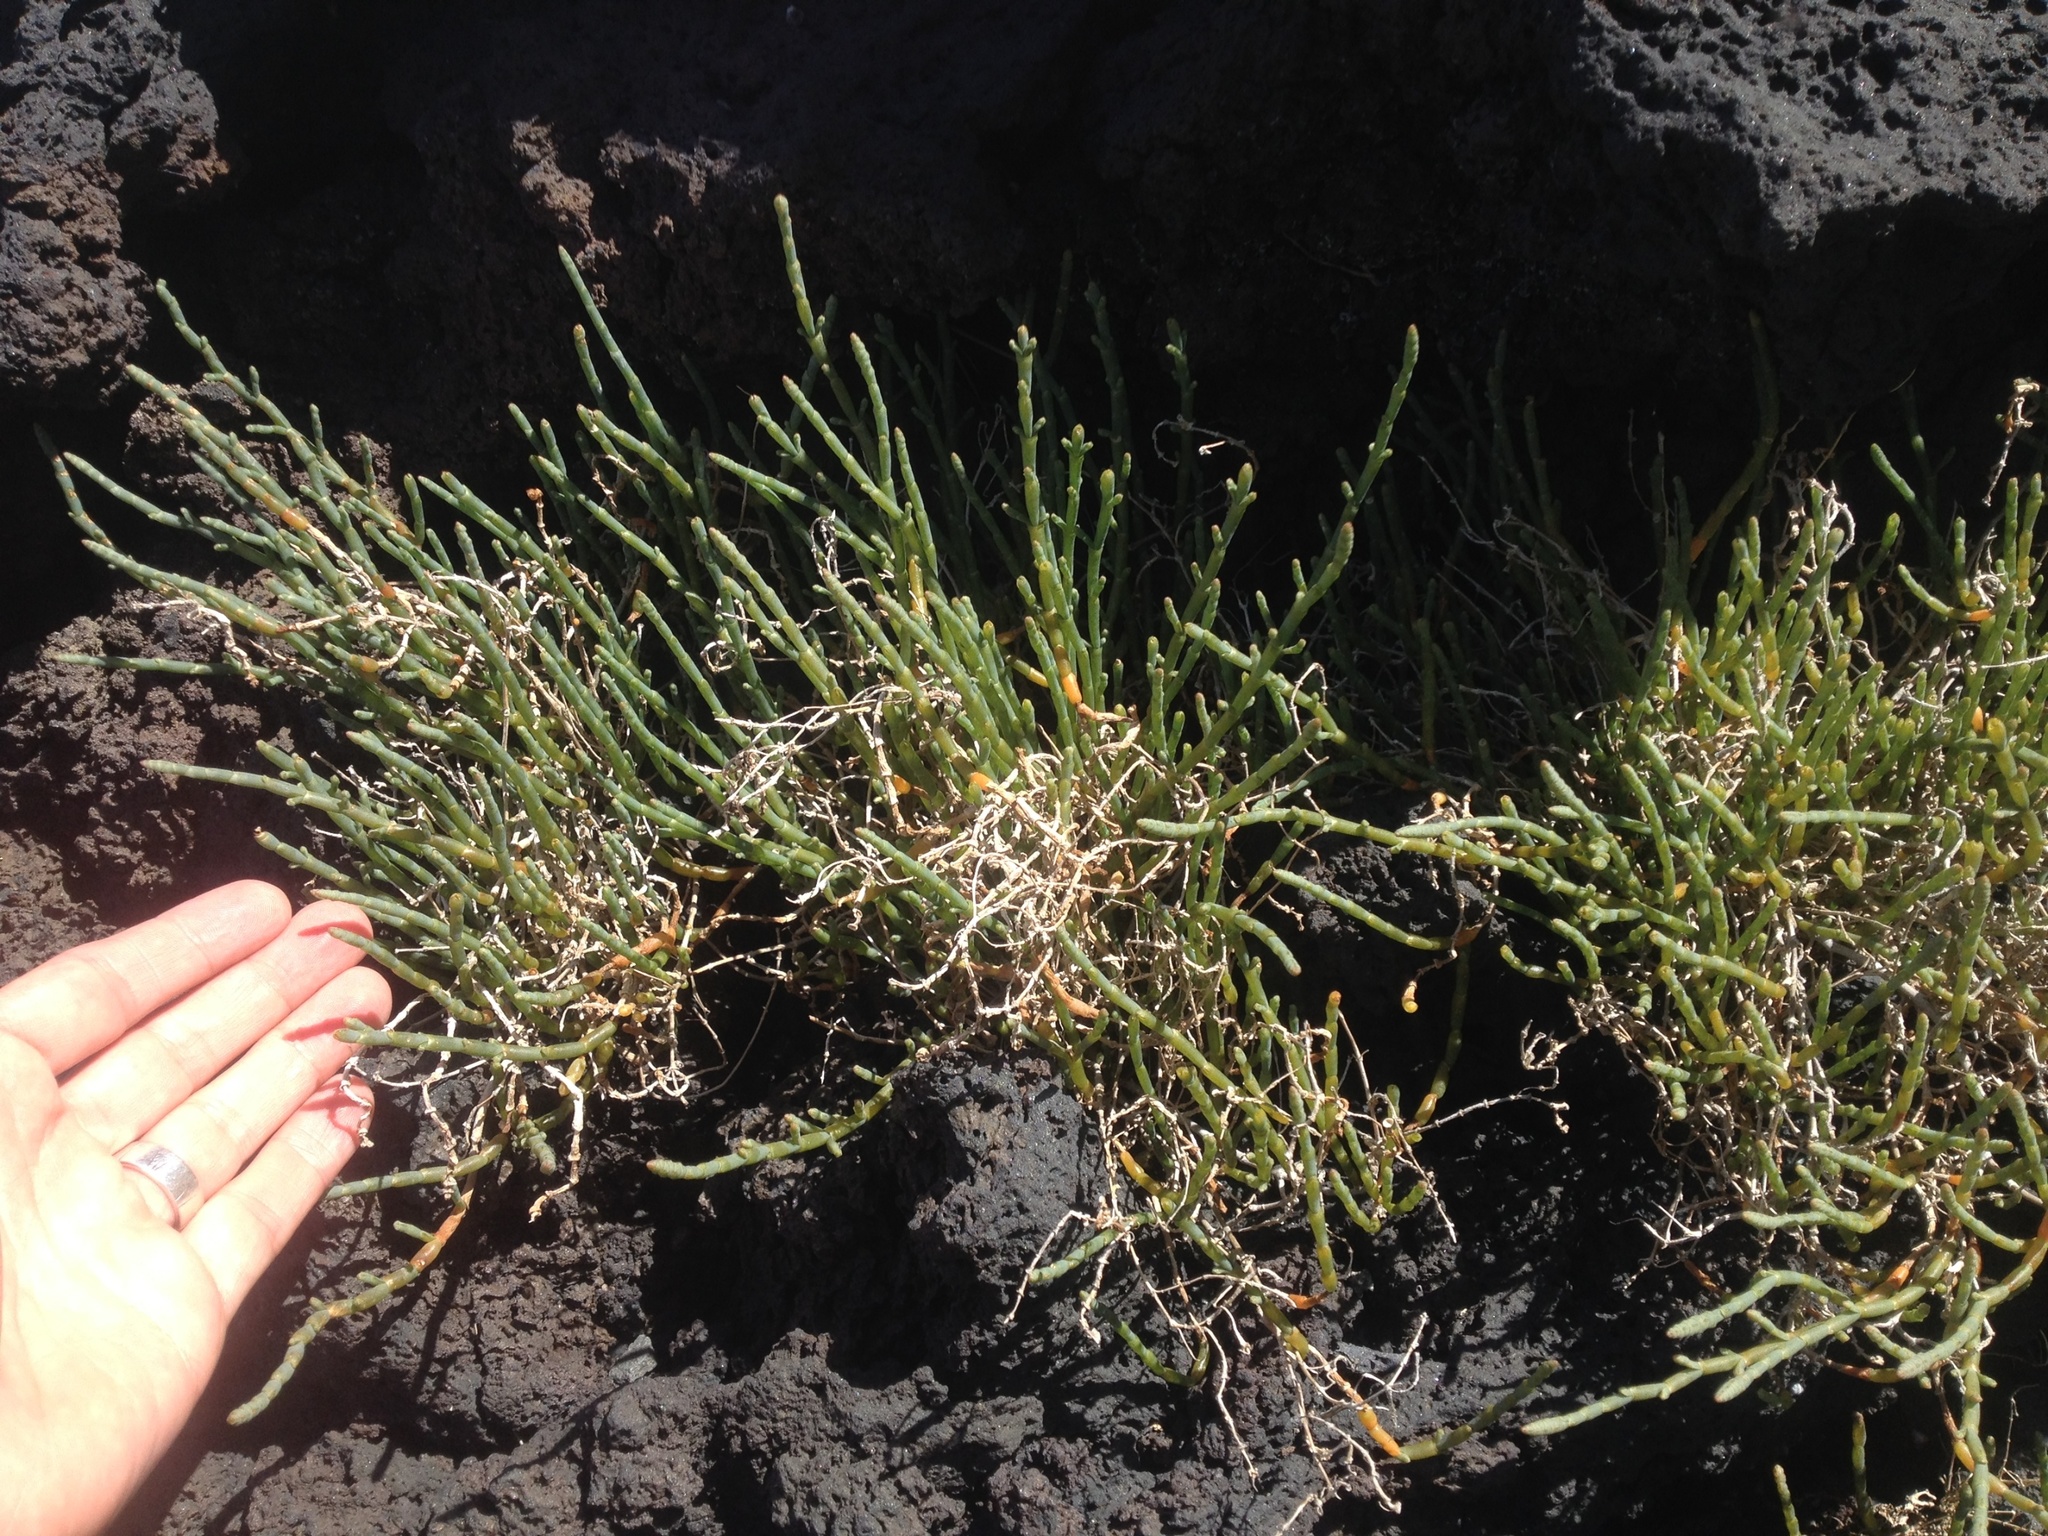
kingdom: Plantae
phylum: Tracheophyta
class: Magnoliopsida
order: Caryophyllales
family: Amaranthaceae
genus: Salicornia
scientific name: Salicornia quinqueflora
